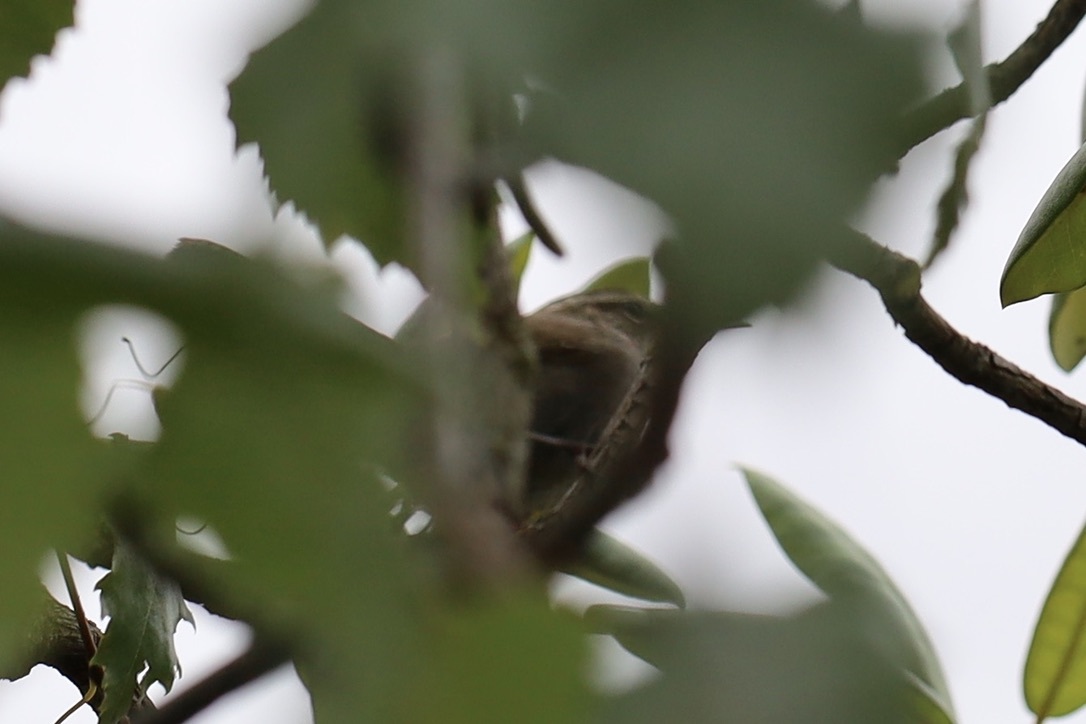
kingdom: Animalia
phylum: Chordata
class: Aves
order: Passeriformes
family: Troglodytidae
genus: Thryomanes
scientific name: Thryomanes bewickii
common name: Bewick's wren
